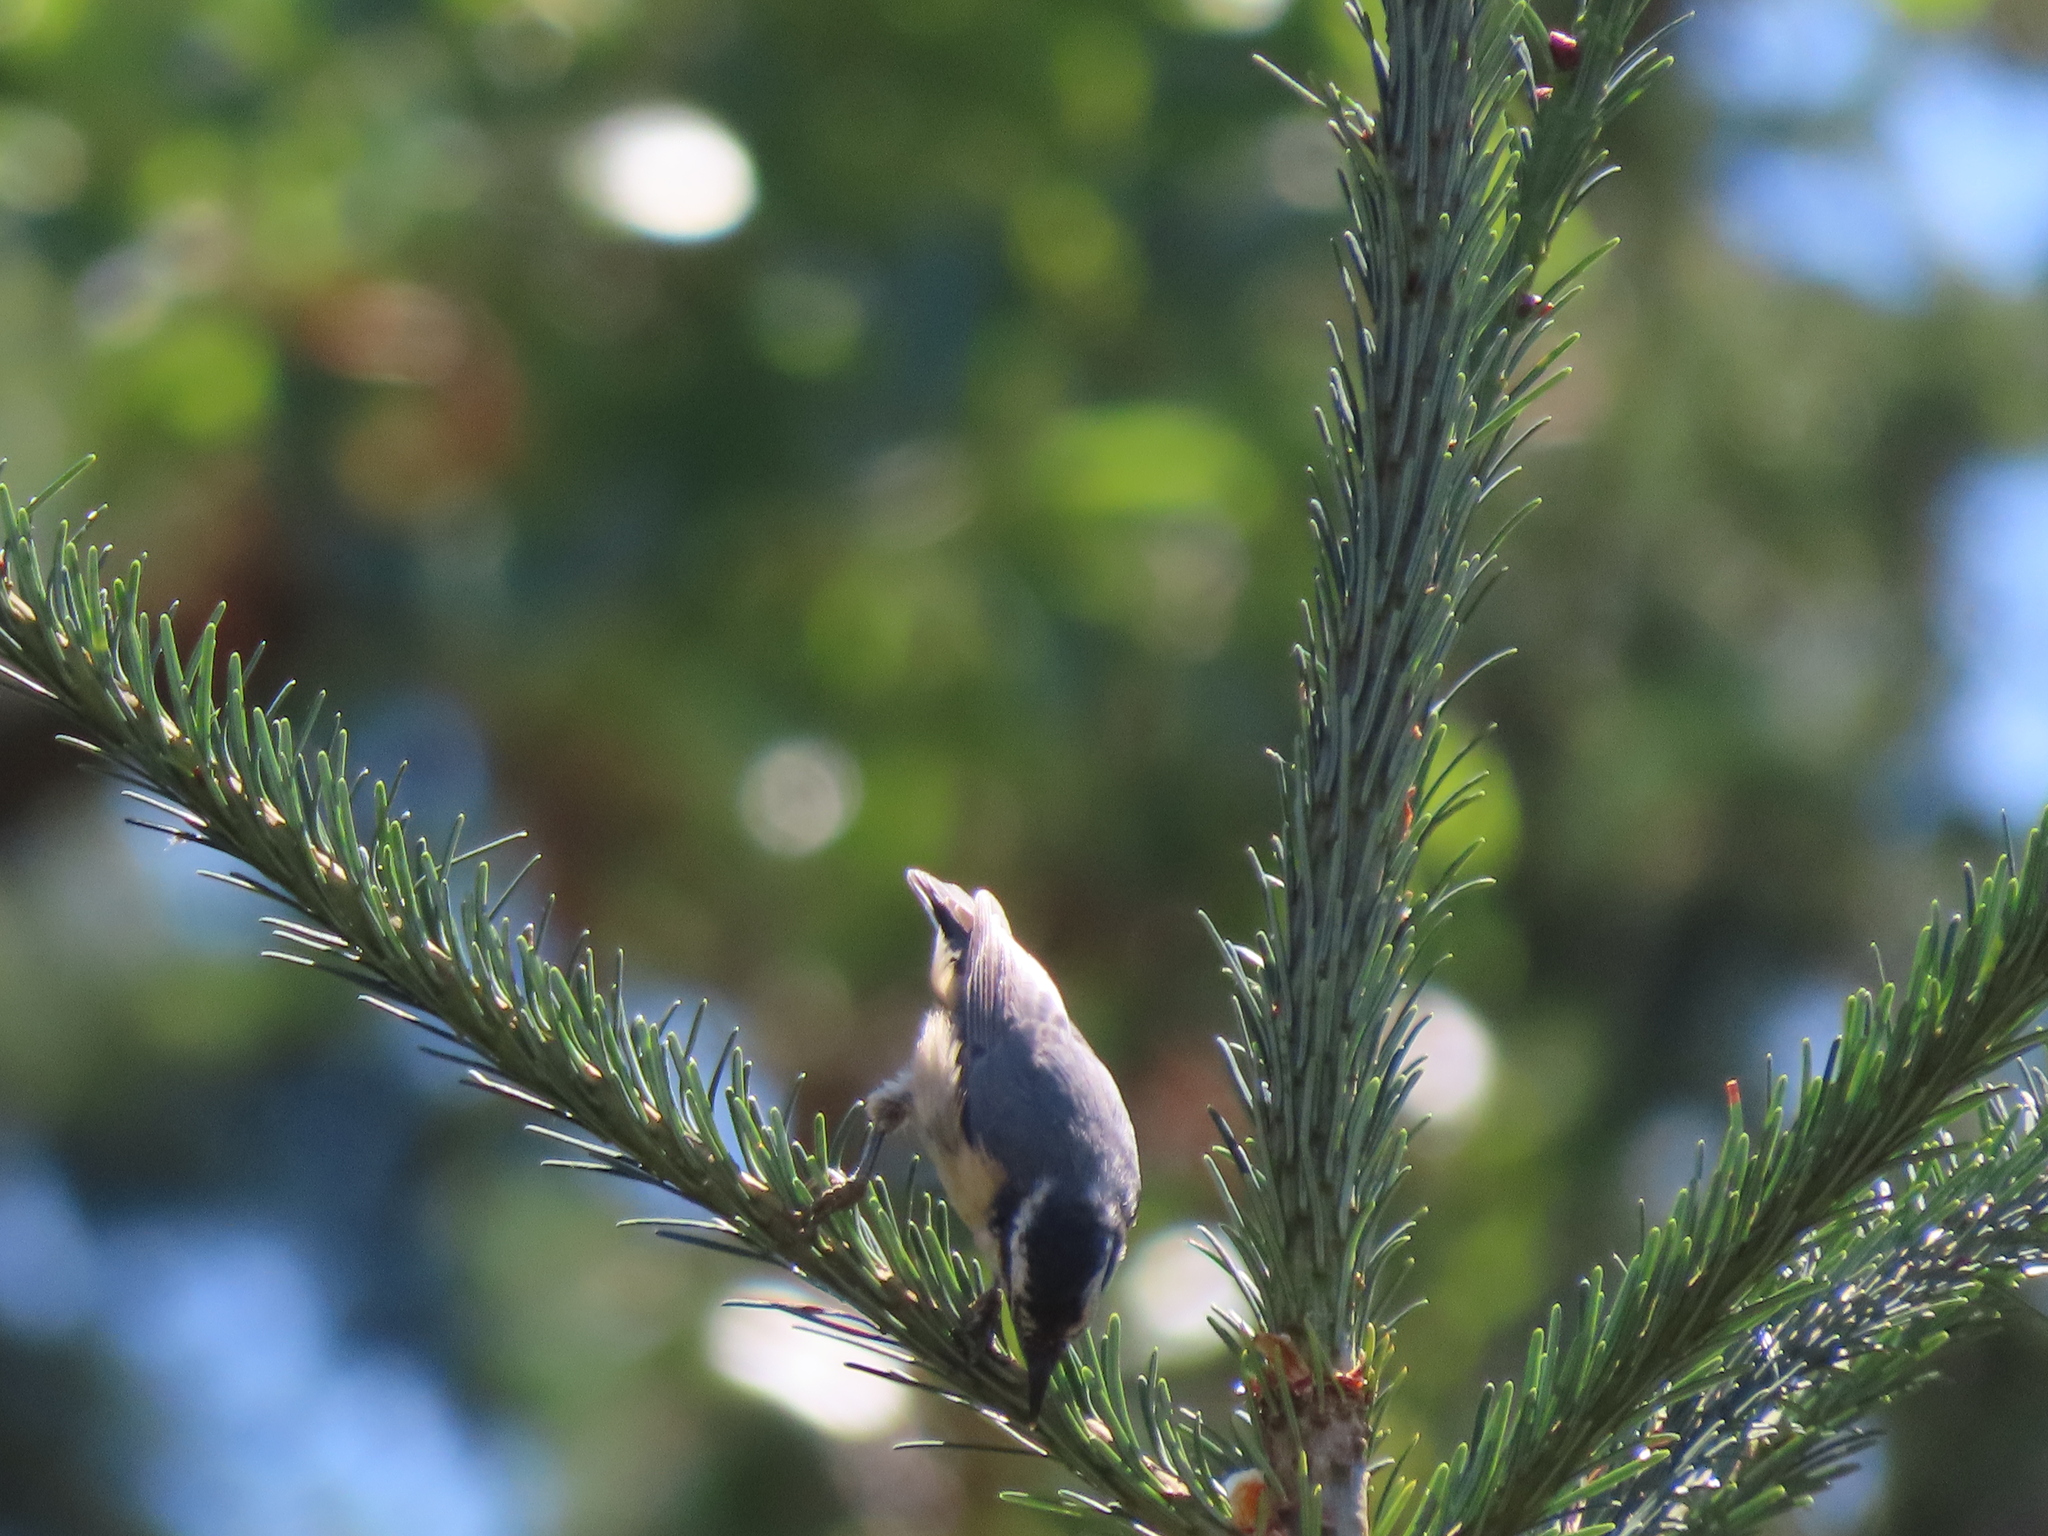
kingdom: Animalia
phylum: Chordata
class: Aves
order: Passeriformes
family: Sittidae
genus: Sitta
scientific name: Sitta canadensis
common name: Red-breasted nuthatch
